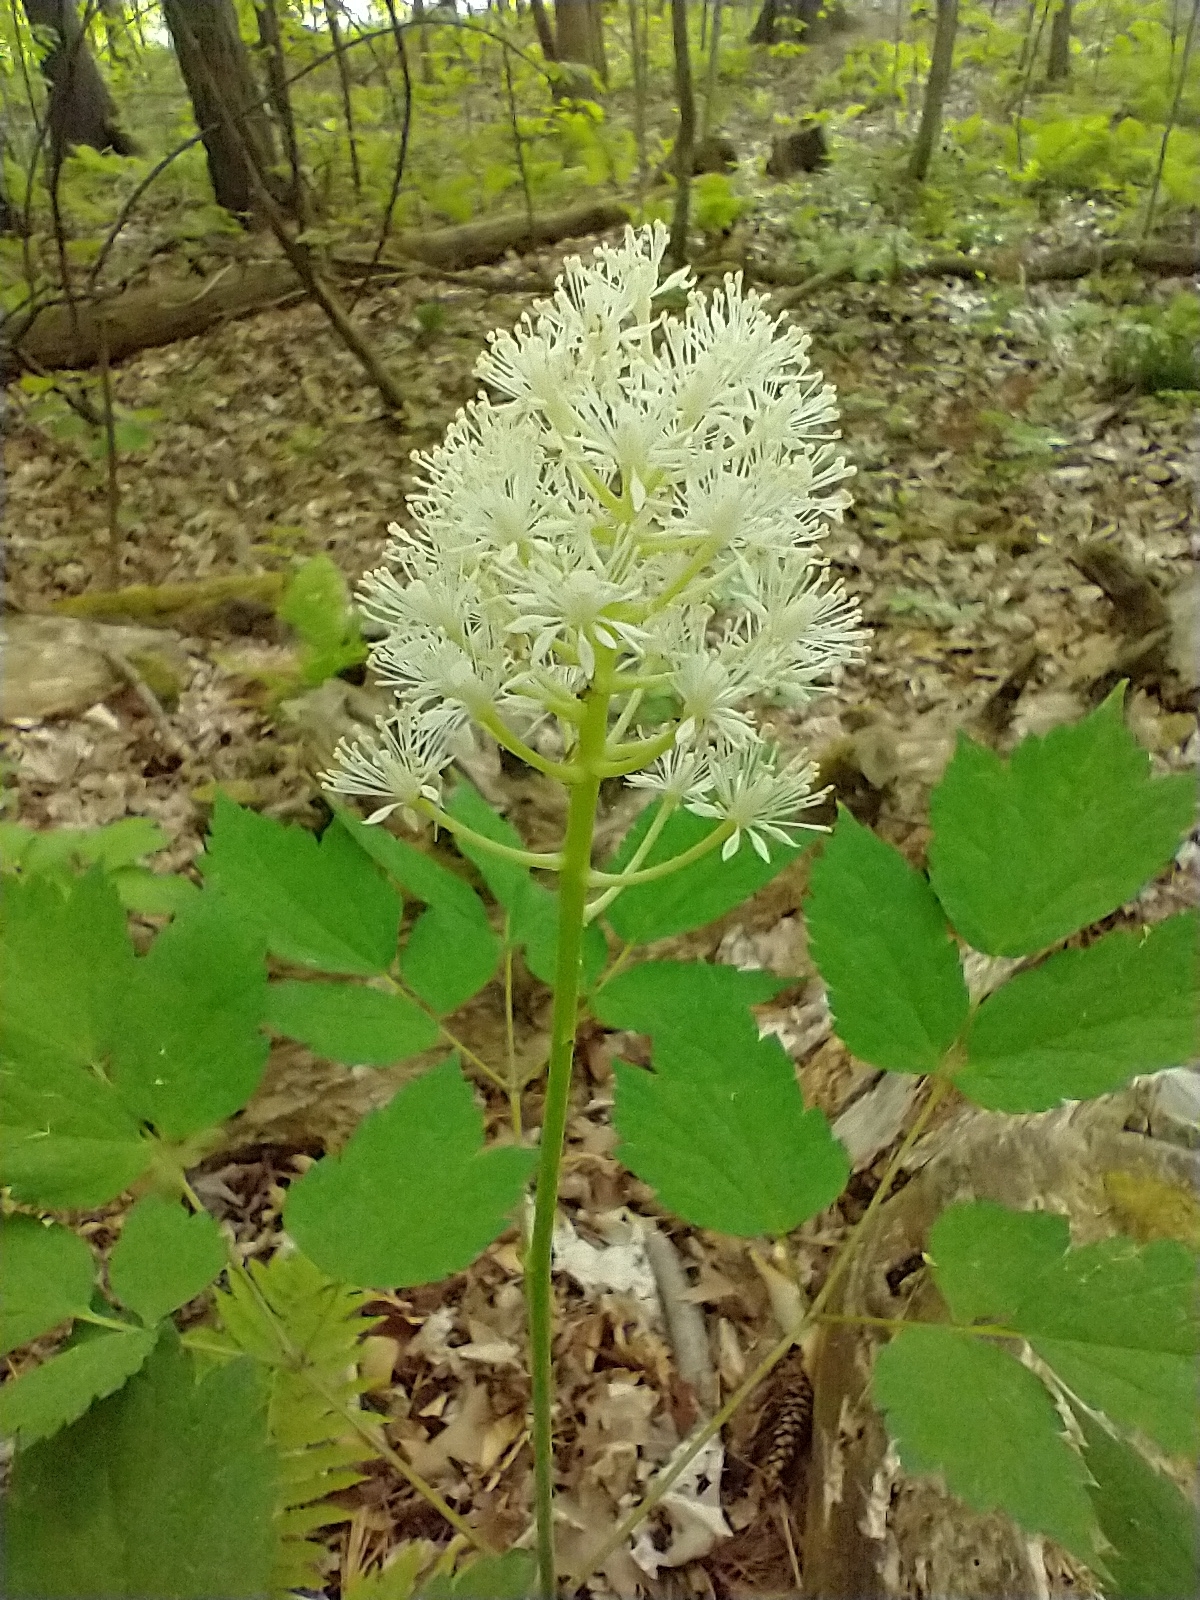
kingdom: Plantae
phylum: Tracheophyta
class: Magnoliopsida
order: Ranunculales
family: Ranunculaceae
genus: Actaea
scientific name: Actaea rubra
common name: Red baneberry
